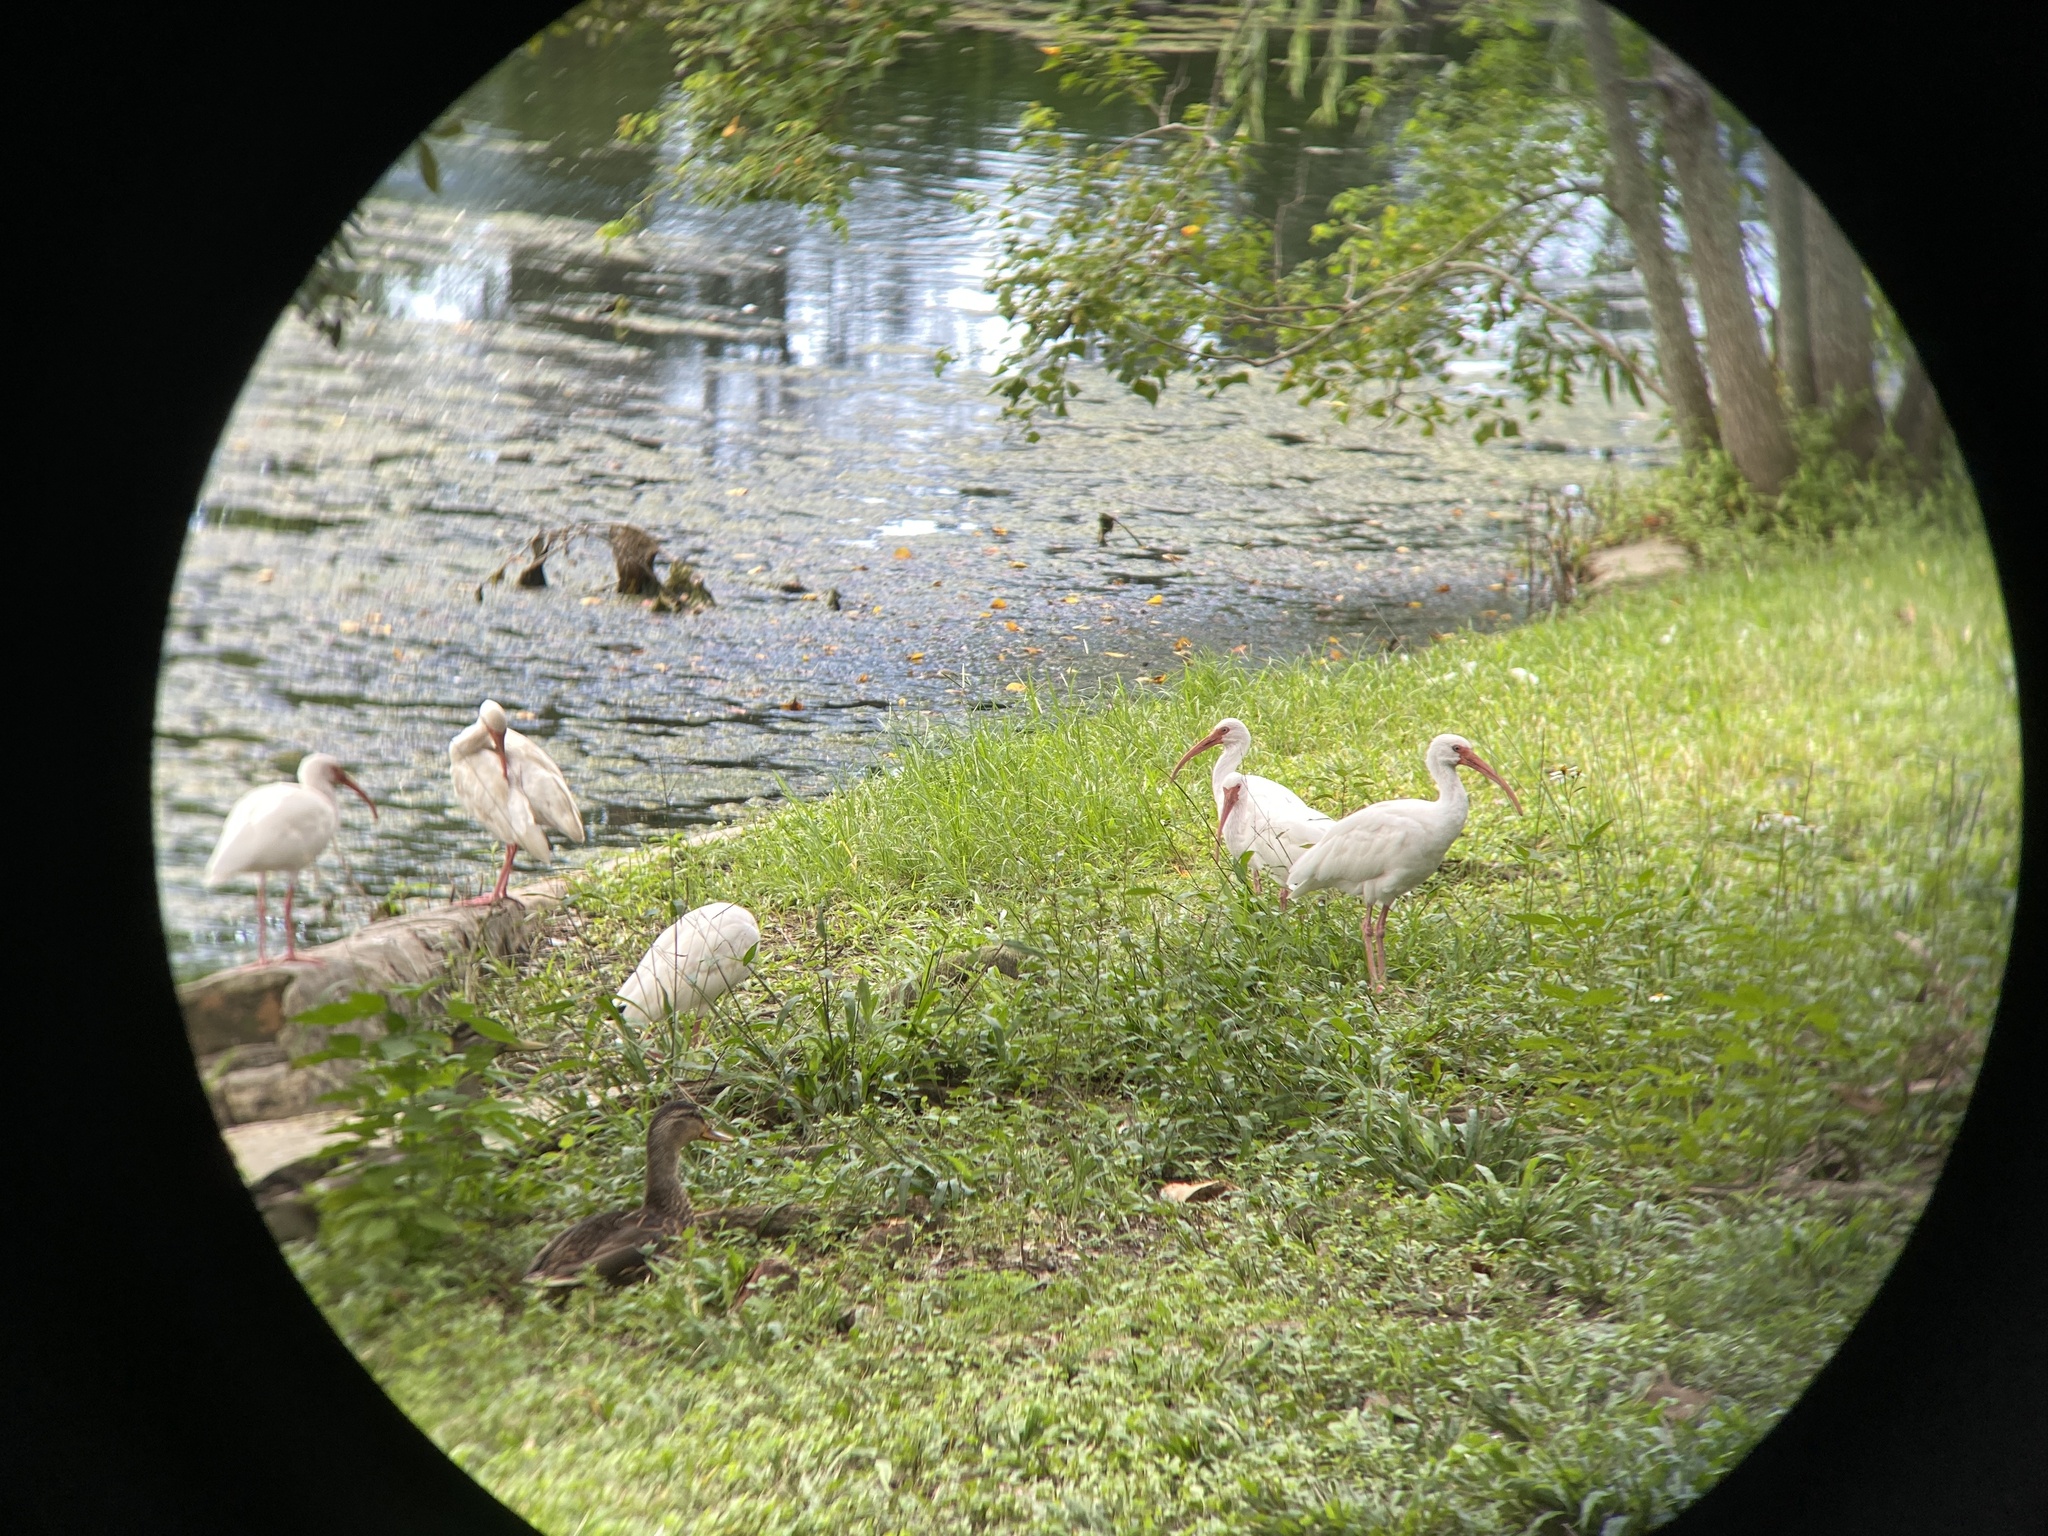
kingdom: Animalia
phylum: Chordata
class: Aves
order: Pelecaniformes
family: Threskiornithidae
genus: Eudocimus
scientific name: Eudocimus albus
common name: White ibis
